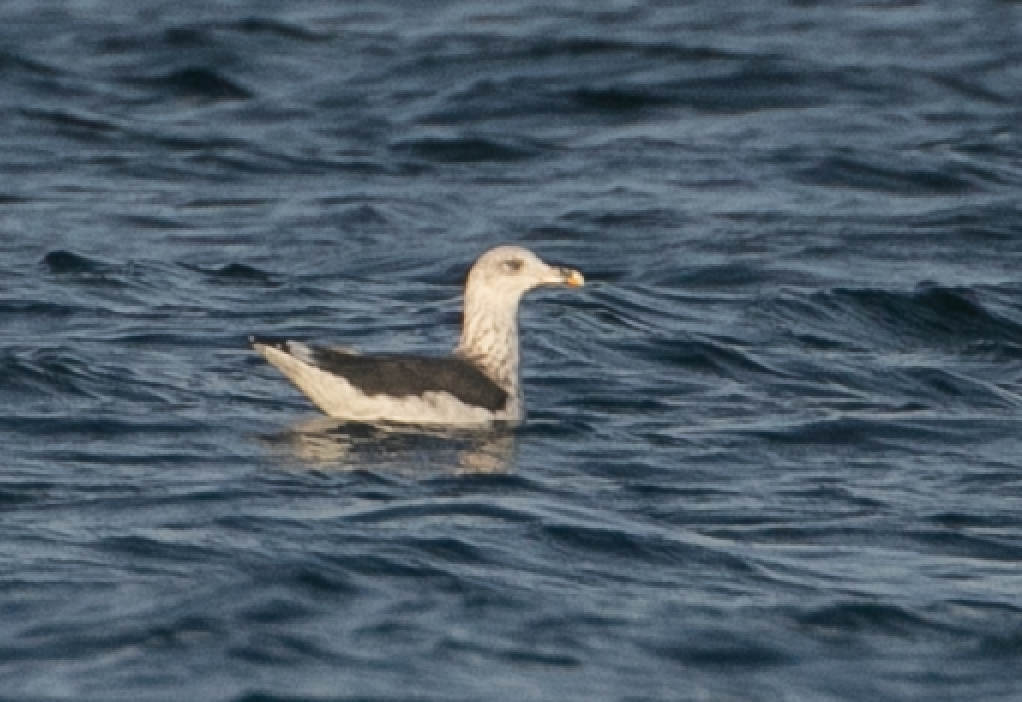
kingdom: Animalia
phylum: Chordata
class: Aves
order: Charadriiformes
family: Laridae
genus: Larus
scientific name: Larus fuscus
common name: Lesser black-backed gull
